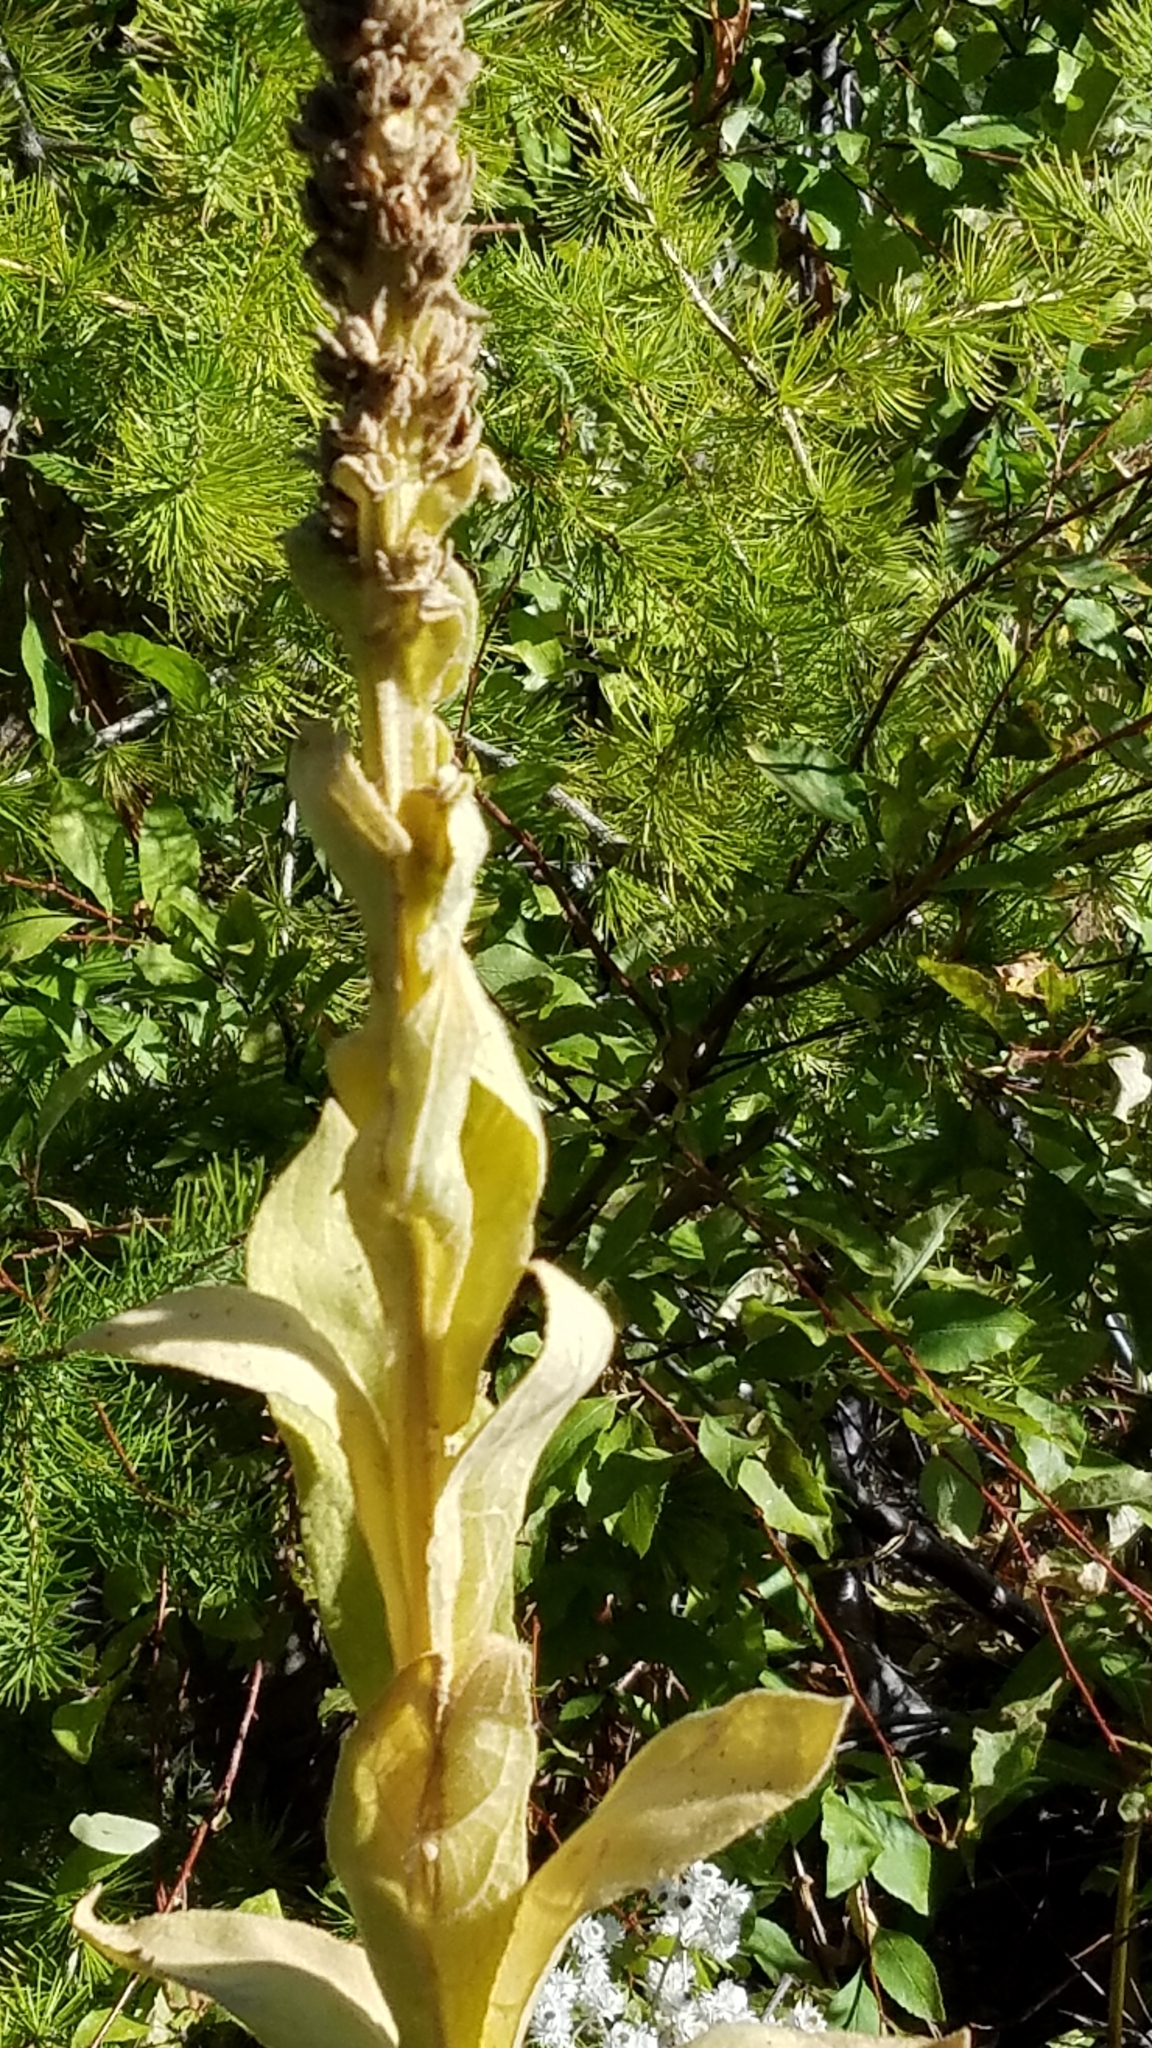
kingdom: Plantae
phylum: Tracheophyta
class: Magnoliopsida
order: Lamiales
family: Scrophulariaceae
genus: Verbascum
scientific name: Verbascum thapsus
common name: Common mullein
